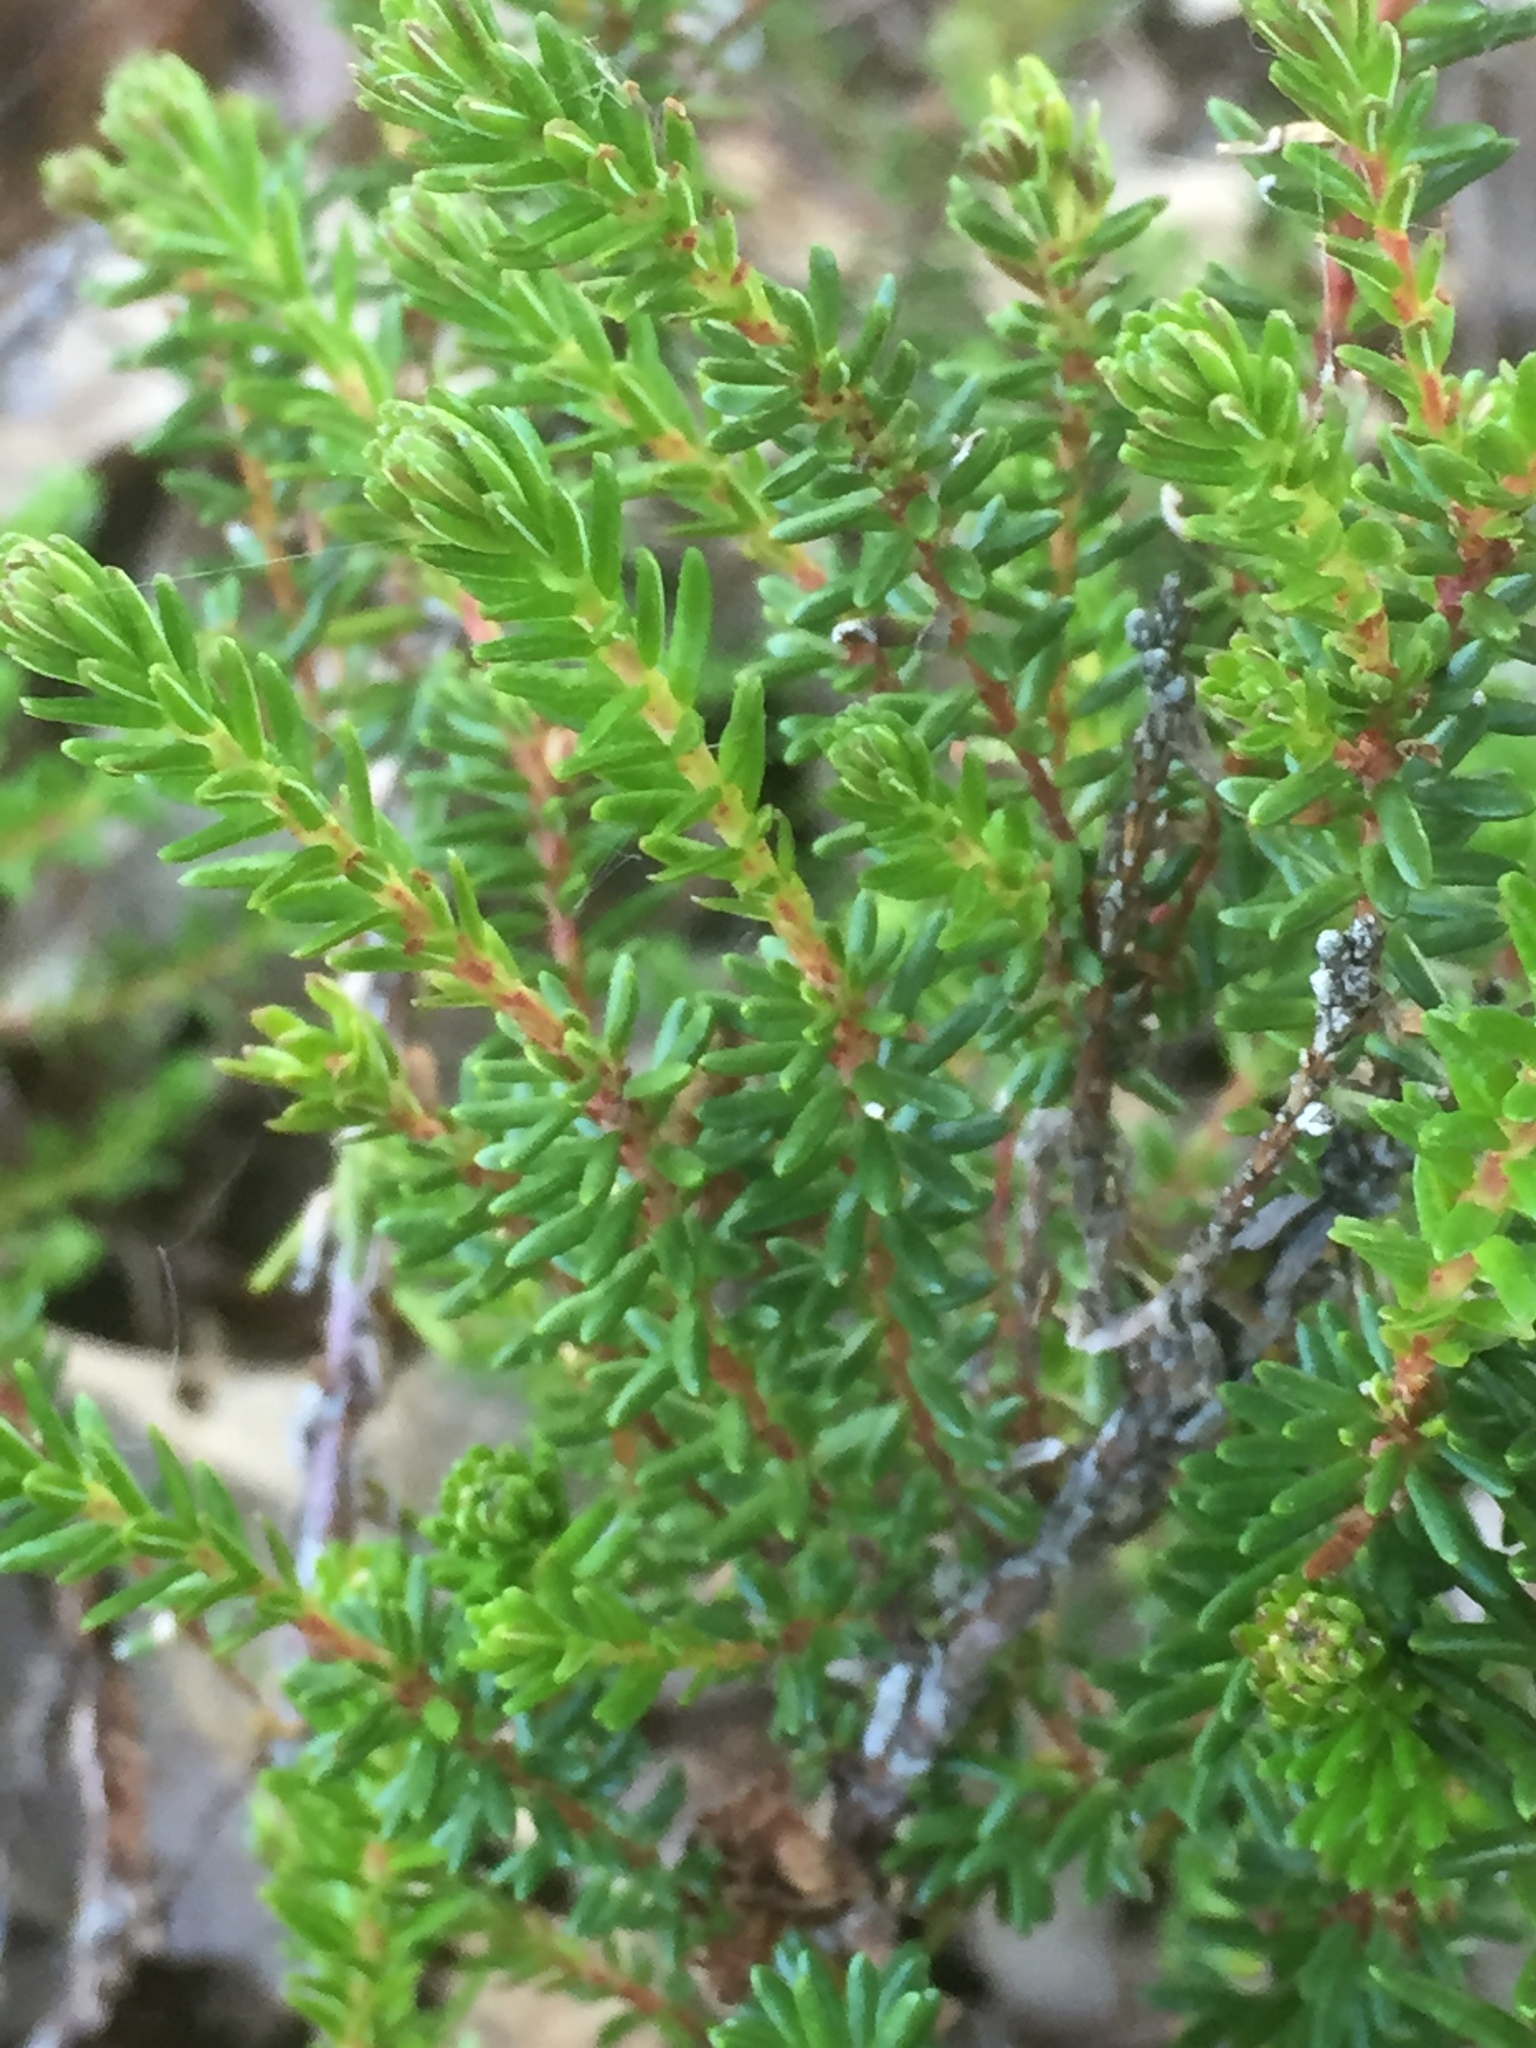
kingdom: Plantae
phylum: Tracheophyta
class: Magnoliopsida
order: Ericales
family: Ericaceae
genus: Empetrum
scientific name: Empetrum nigrum
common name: Black crowberry
